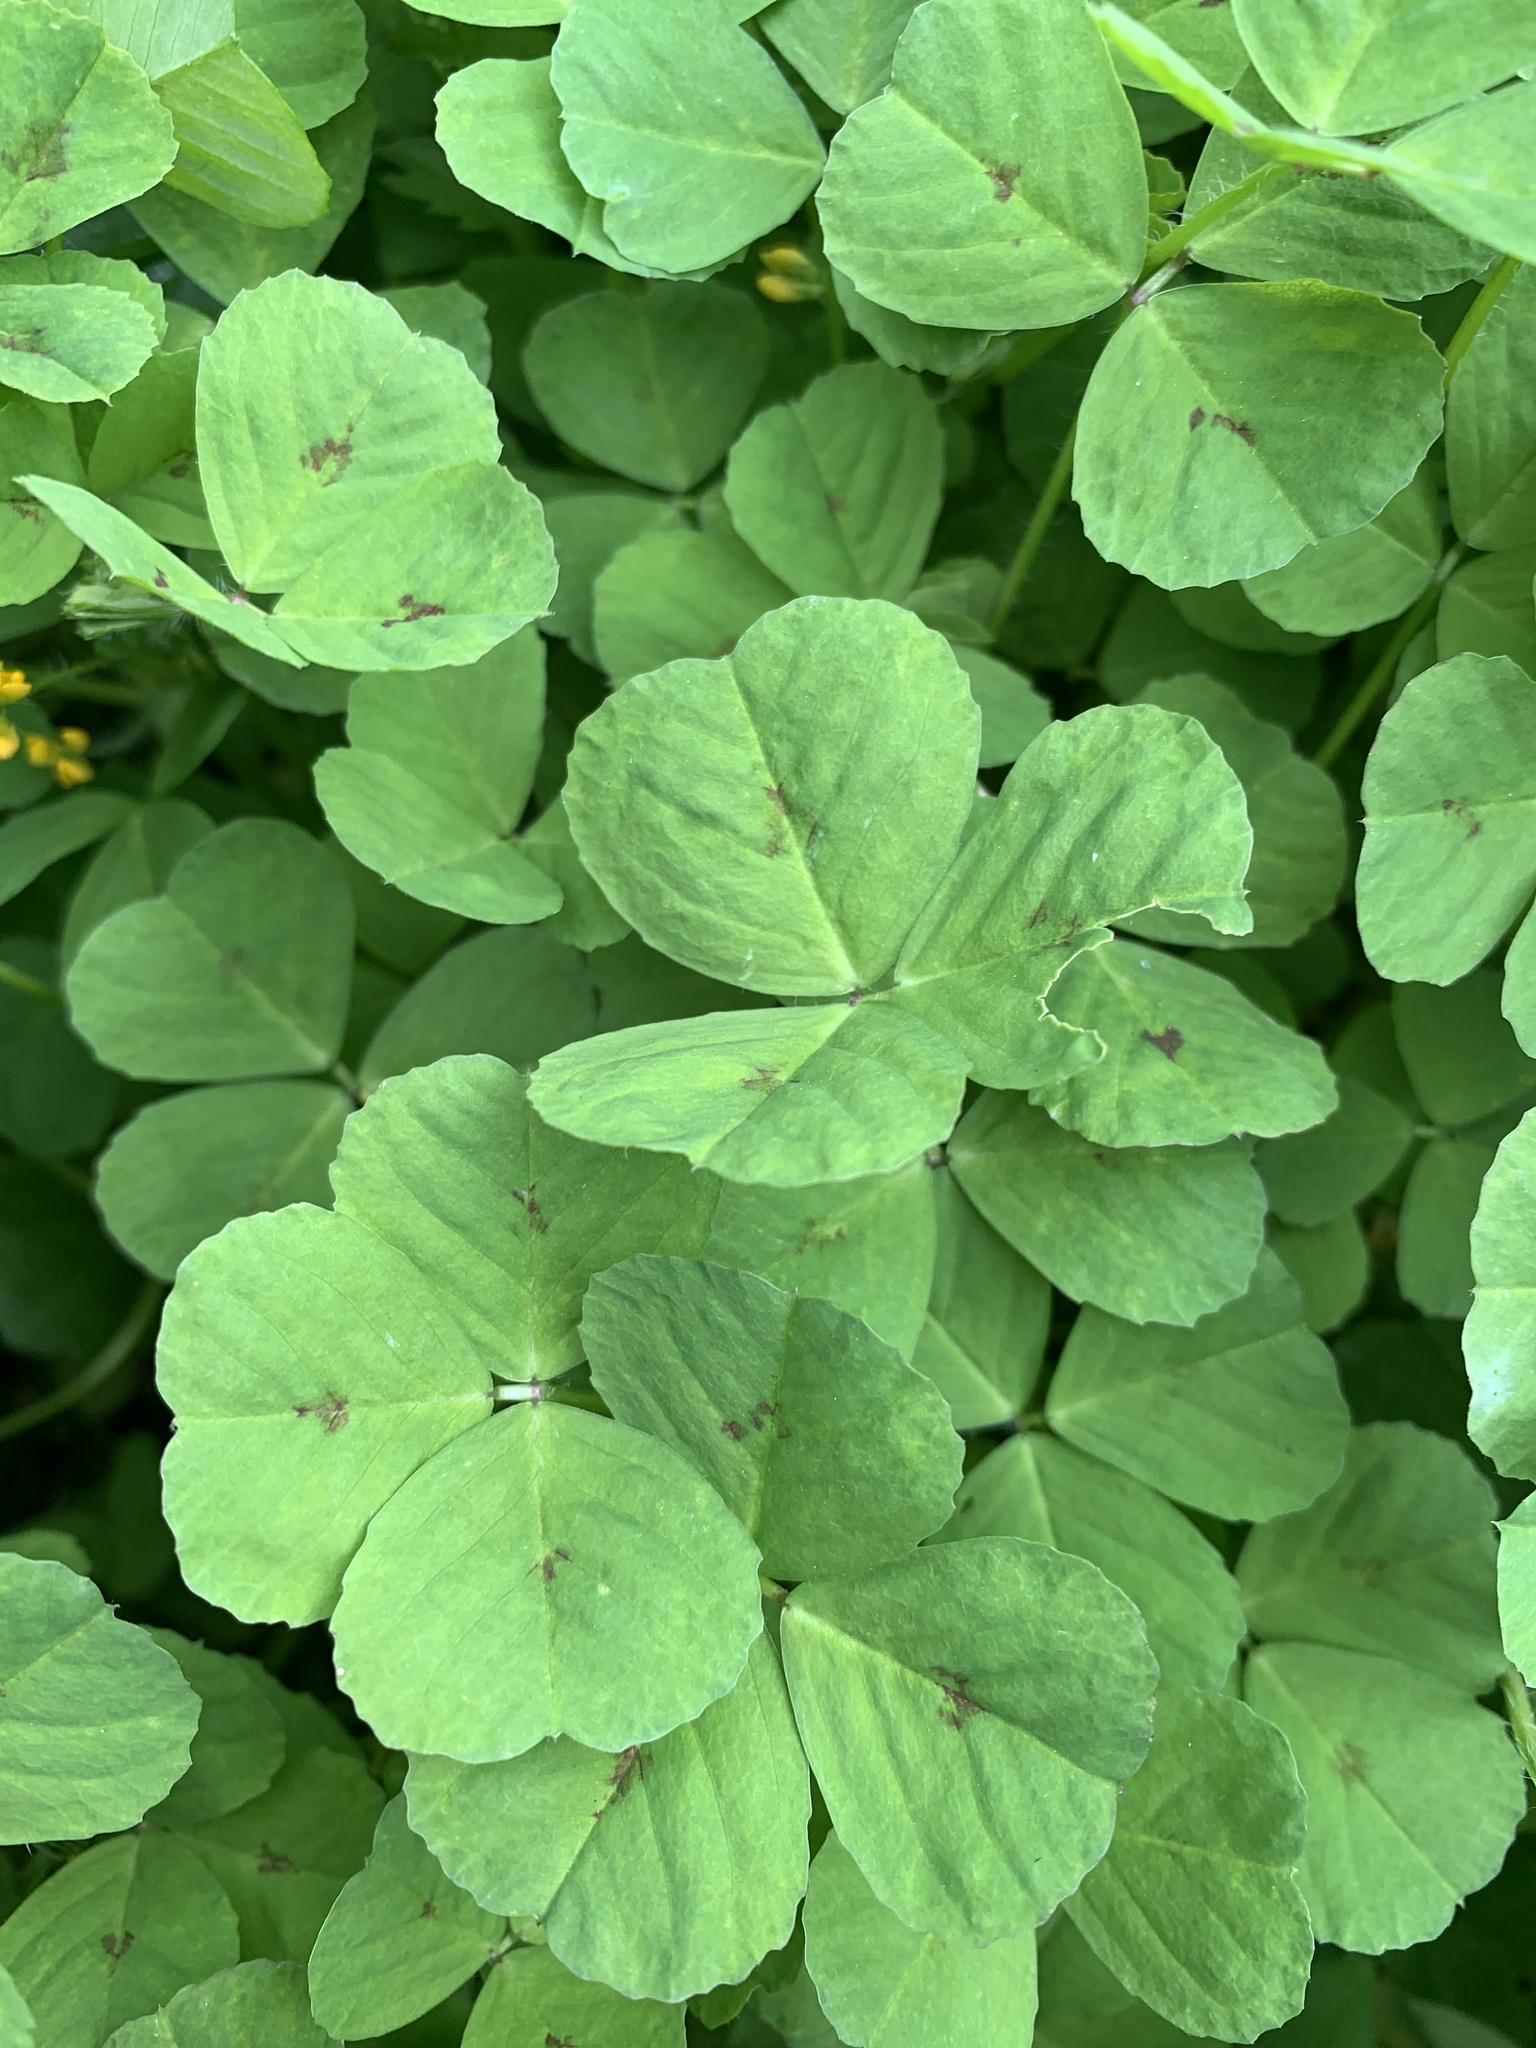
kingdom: Plantae
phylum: Tracheophyta
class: Magnoliopsida
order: Fabales
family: Fabaceae
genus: Medicago
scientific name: Medicago arabica
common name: Spotted medick
